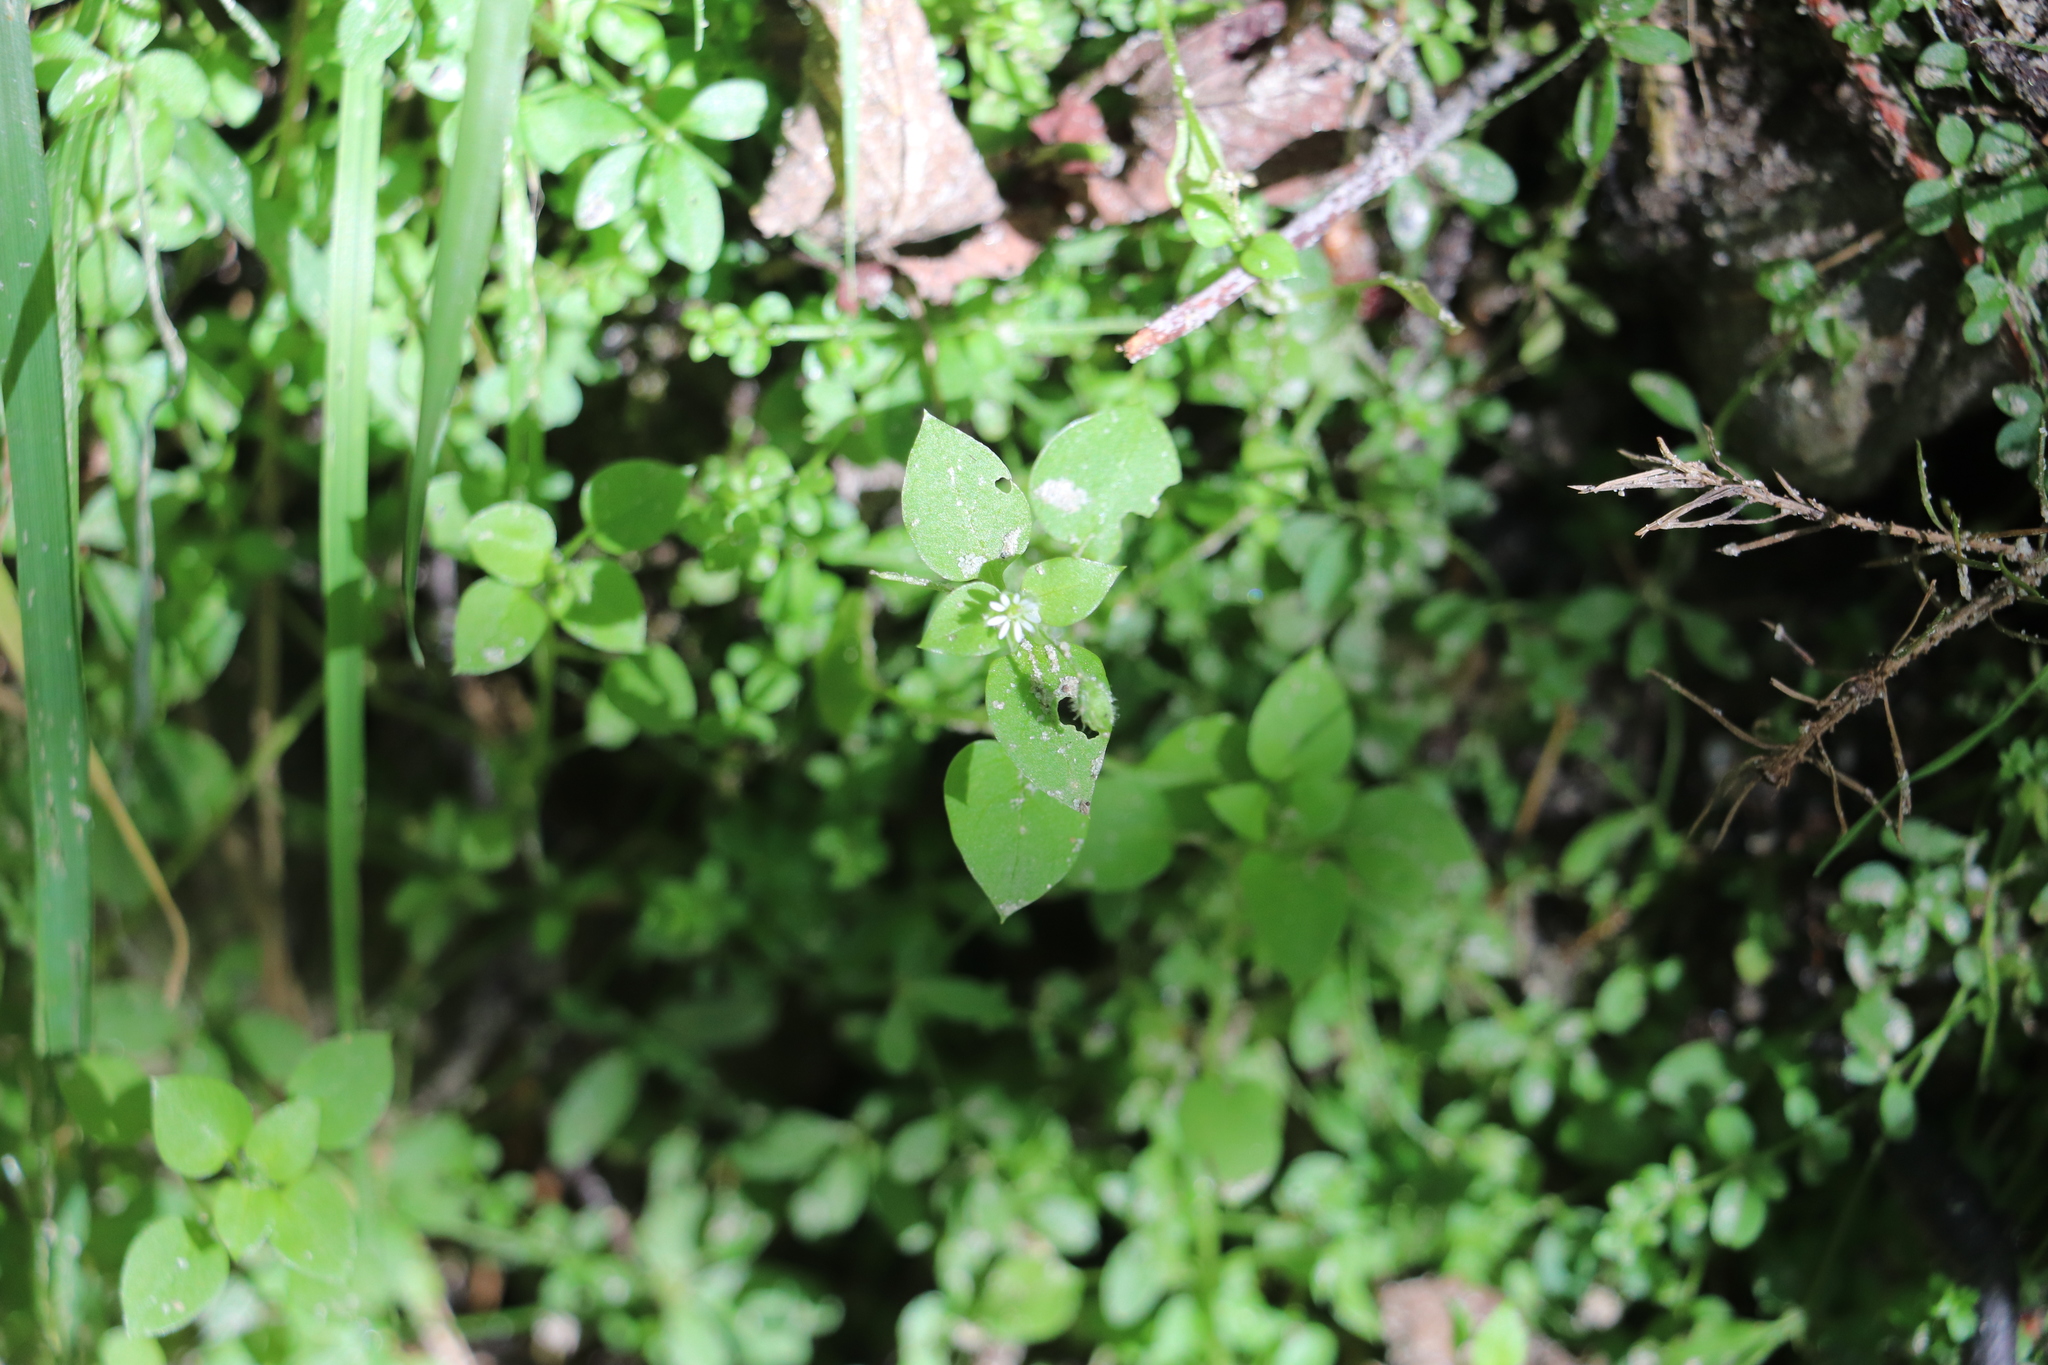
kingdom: Plantae
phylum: Tracheophyta
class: Magnoliopsida
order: Caryophyllales
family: Caryophyllaceae
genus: Stellaria
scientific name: Stellaria media
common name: Common chickweed
